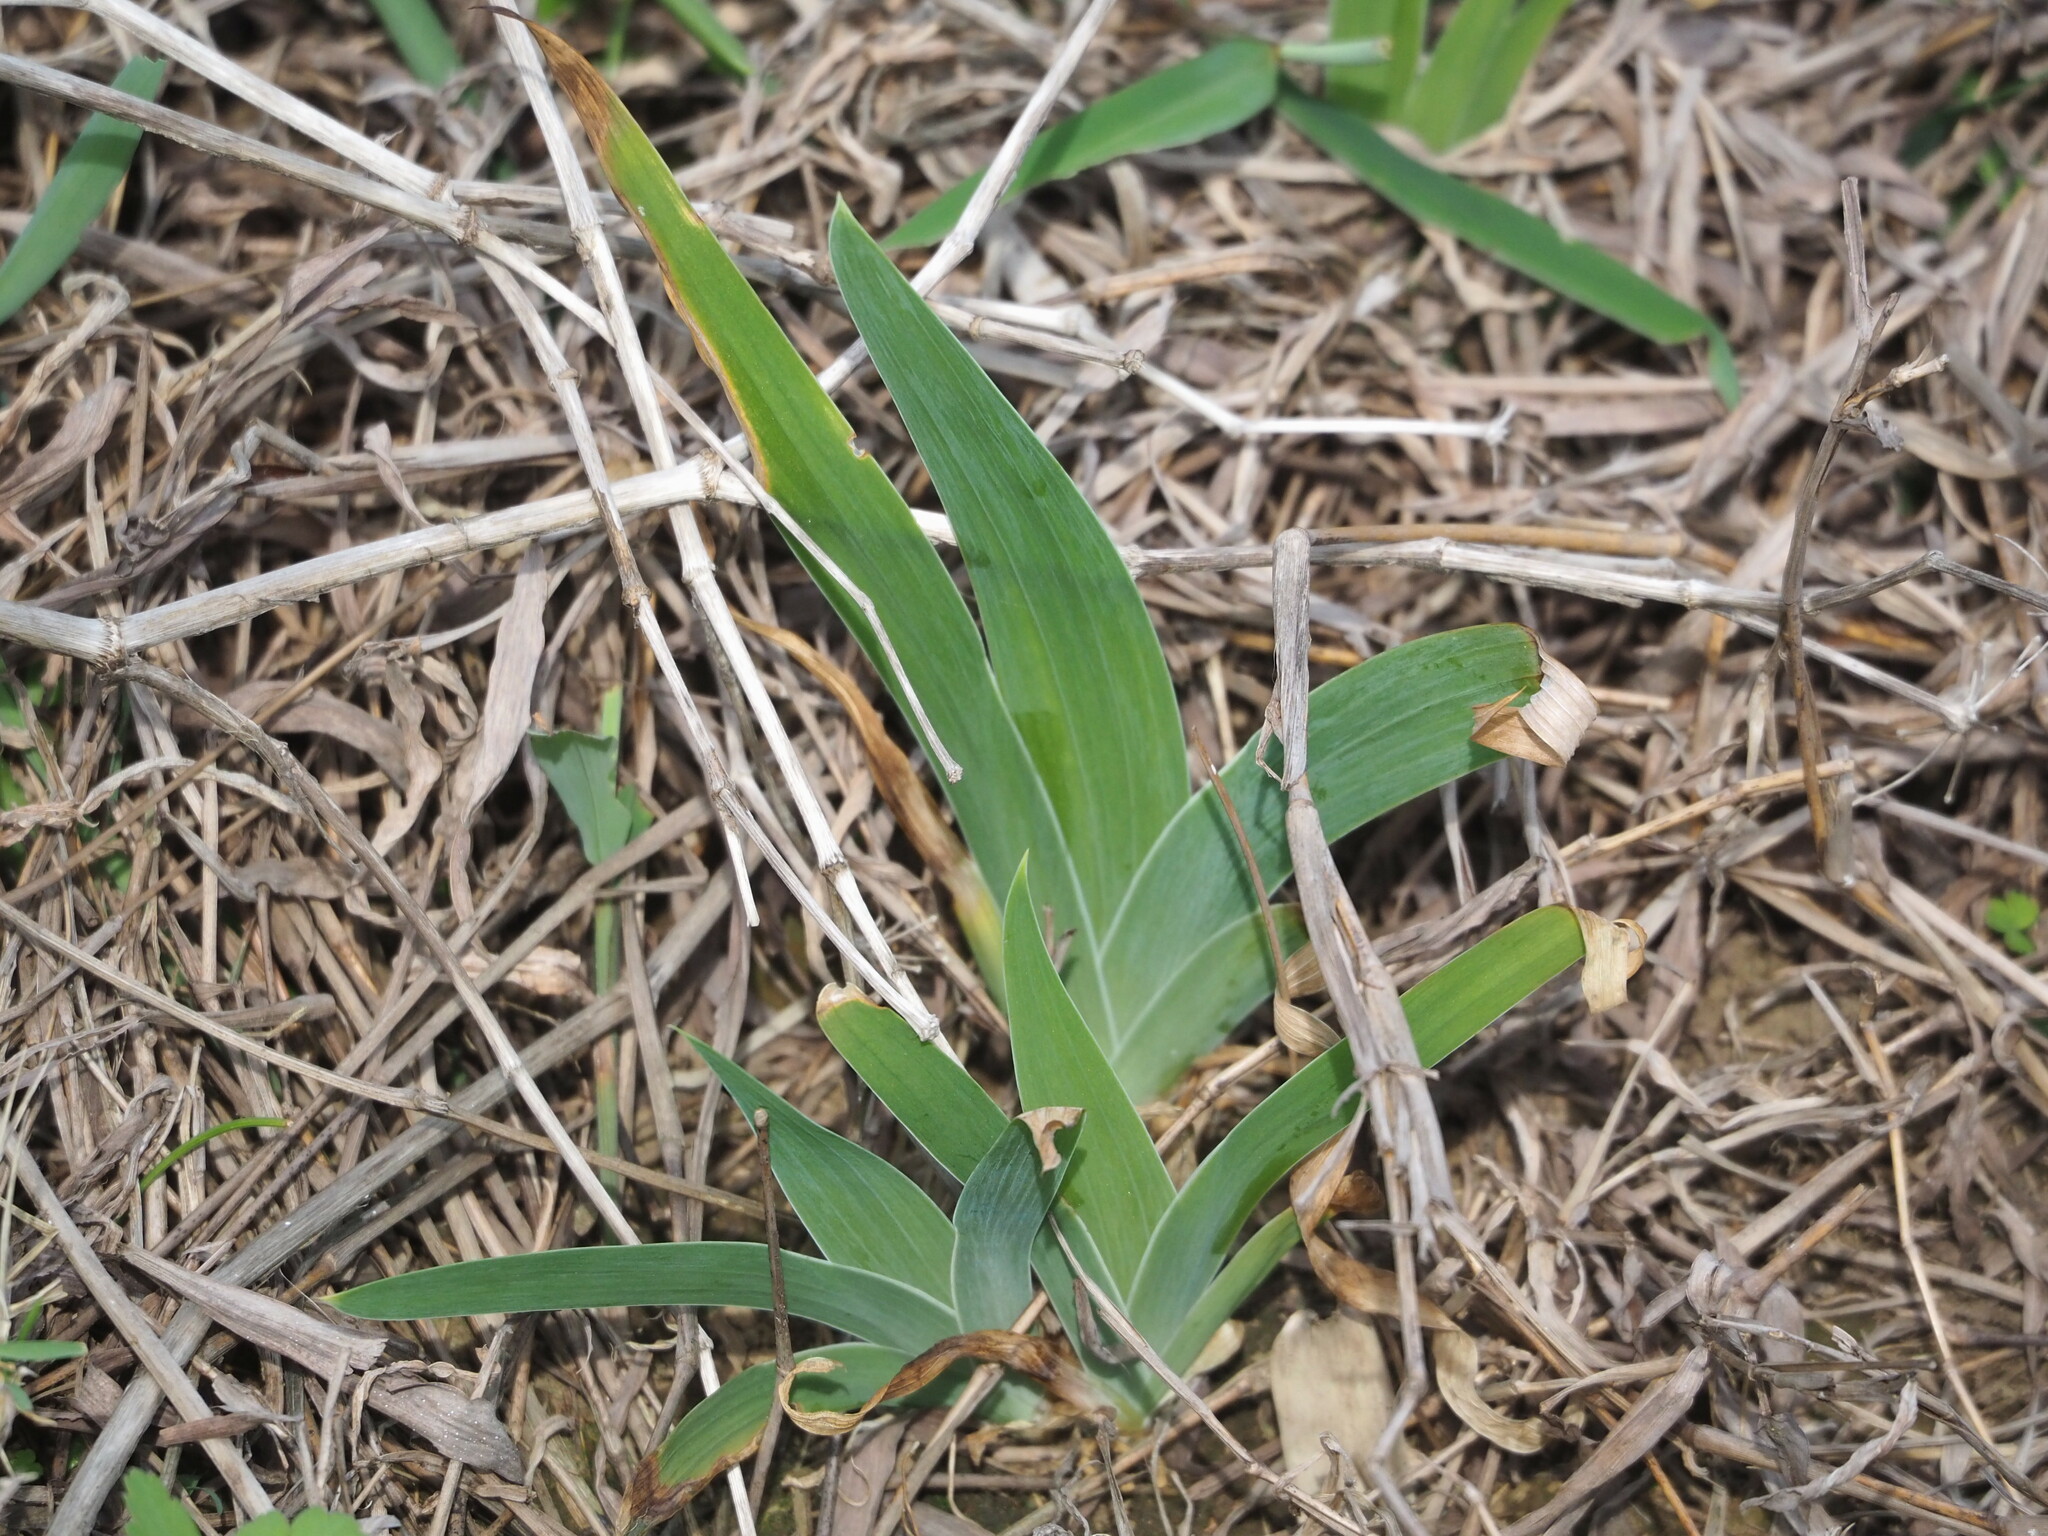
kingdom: Plantae
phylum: Tracheophyta
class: Liliopsida
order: Asparagales
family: Iridaceae
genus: Iris
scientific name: Iris domestica
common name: Belamcanda
